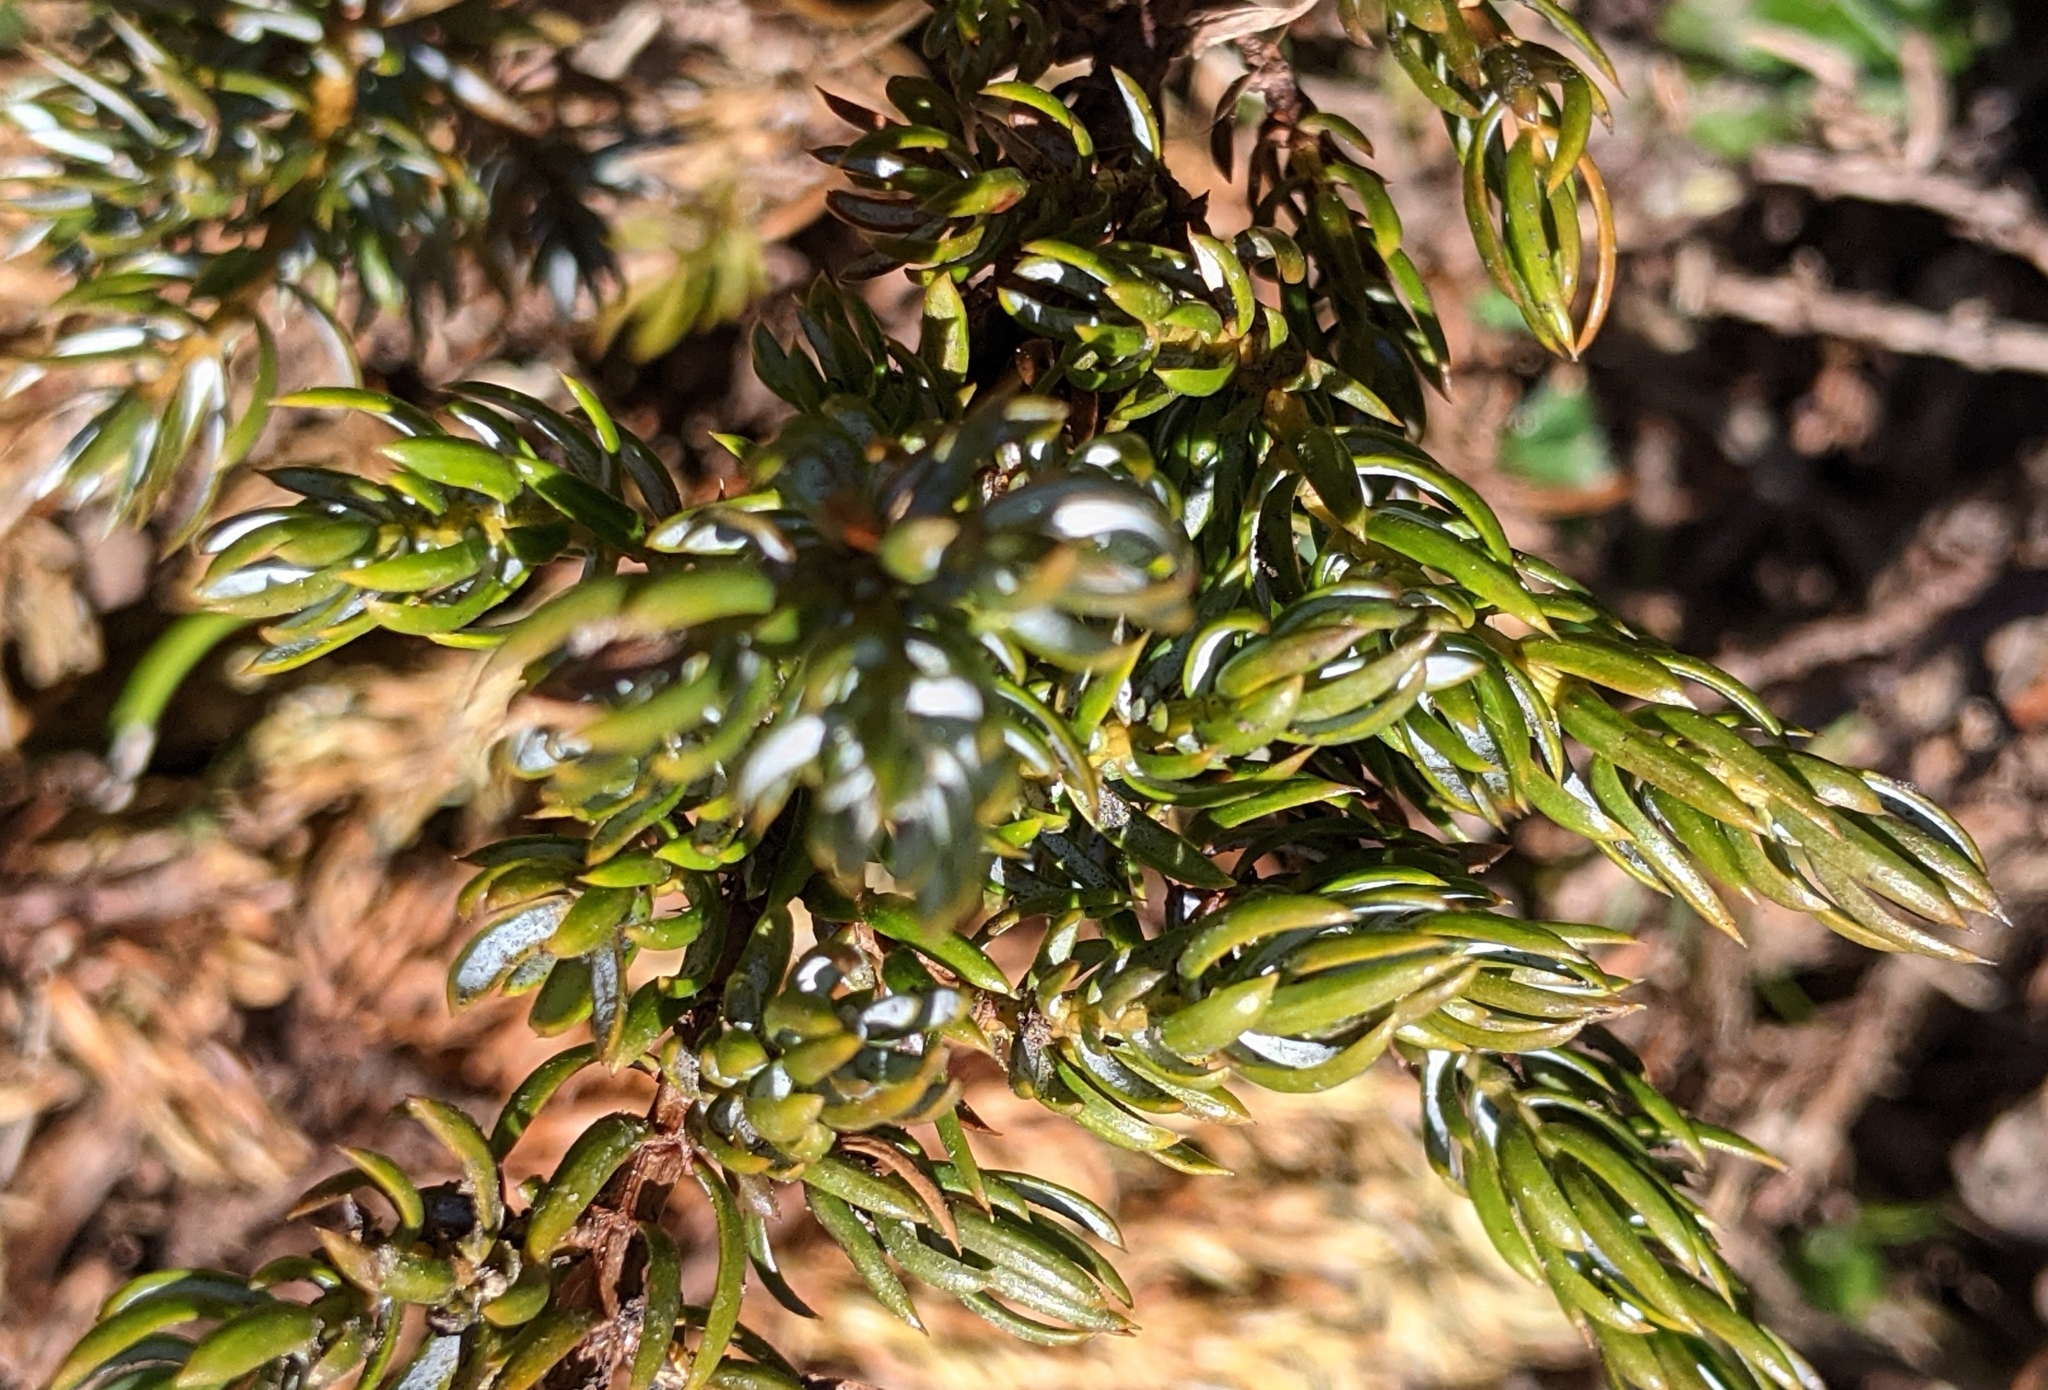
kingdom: Plantae
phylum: Tracheophyta
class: Pinopsida
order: Pinales
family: Cupressaceae
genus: Juniperus
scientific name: Juniperus communis
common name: Common juniper
